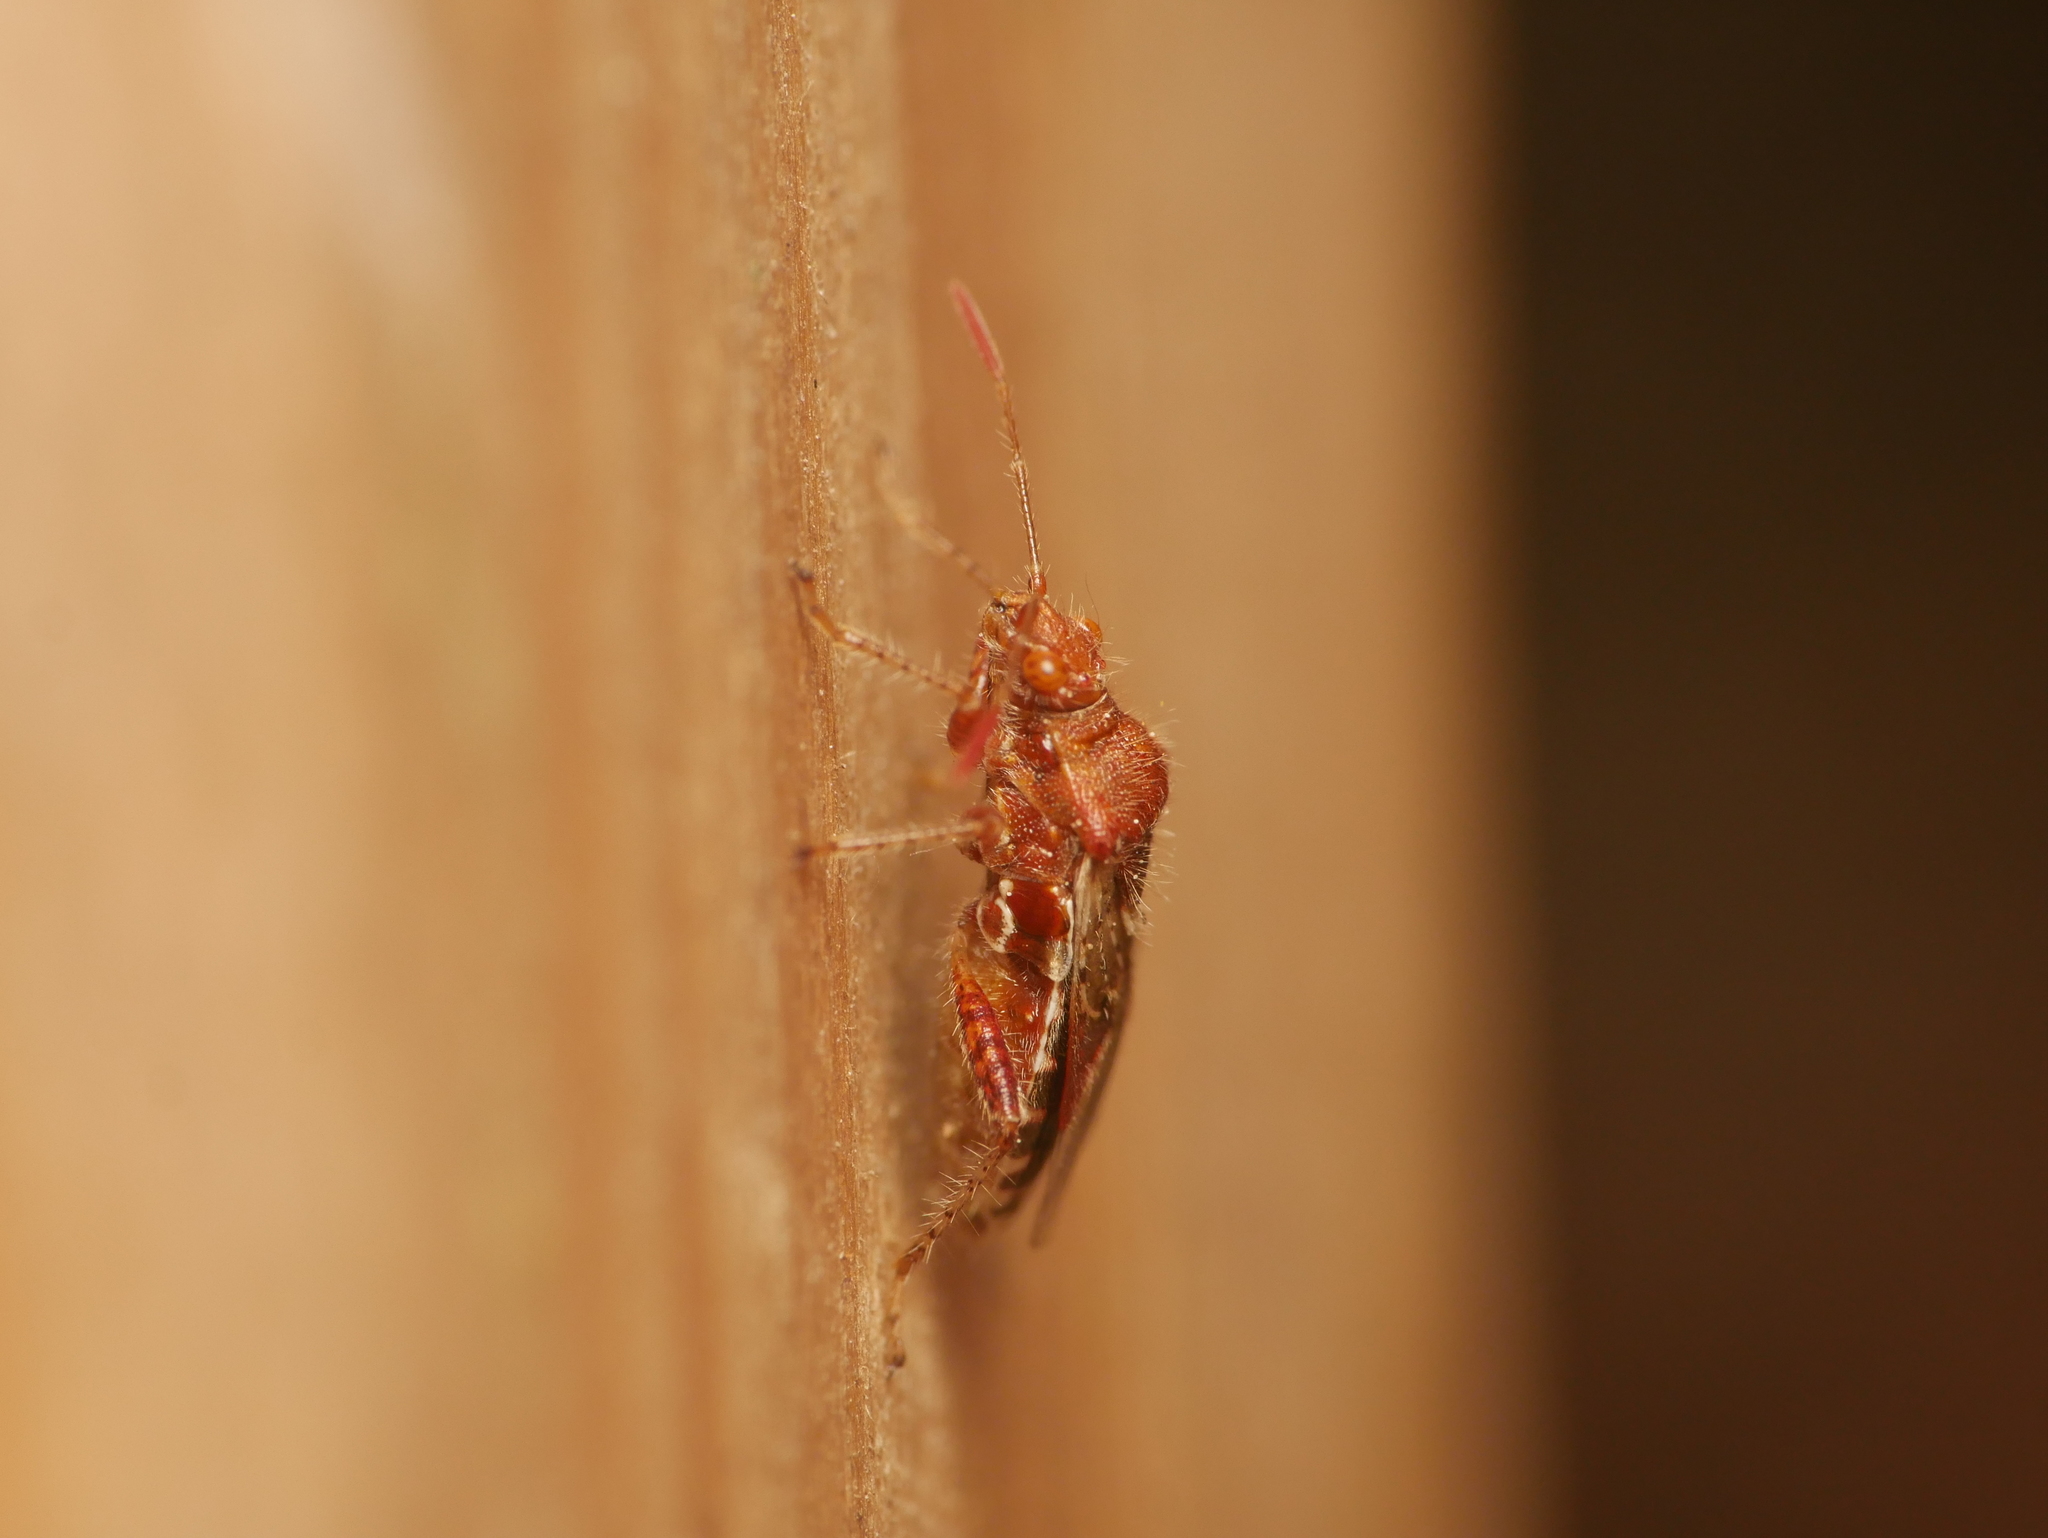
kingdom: Animalia
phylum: Arthropoda
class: Insecta
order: Hemiptera
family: Rhopalidae
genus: Rhopalus
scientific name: Rhopalus subrufus
